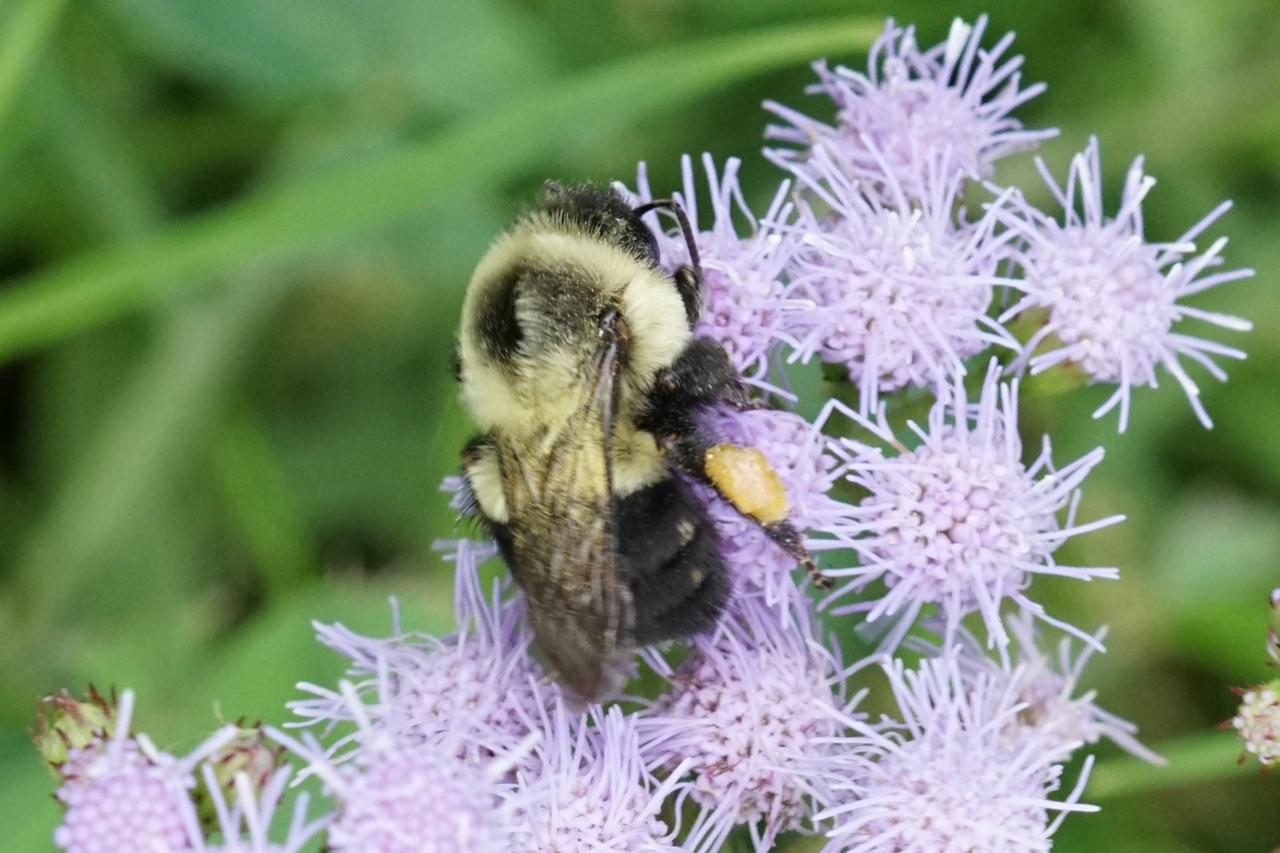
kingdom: Animalia
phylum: Arthropoda
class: Insecta
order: Hymenoptera
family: Apidae
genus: Bombus
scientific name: Bombus impatiens
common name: Common eastern bumble bee
